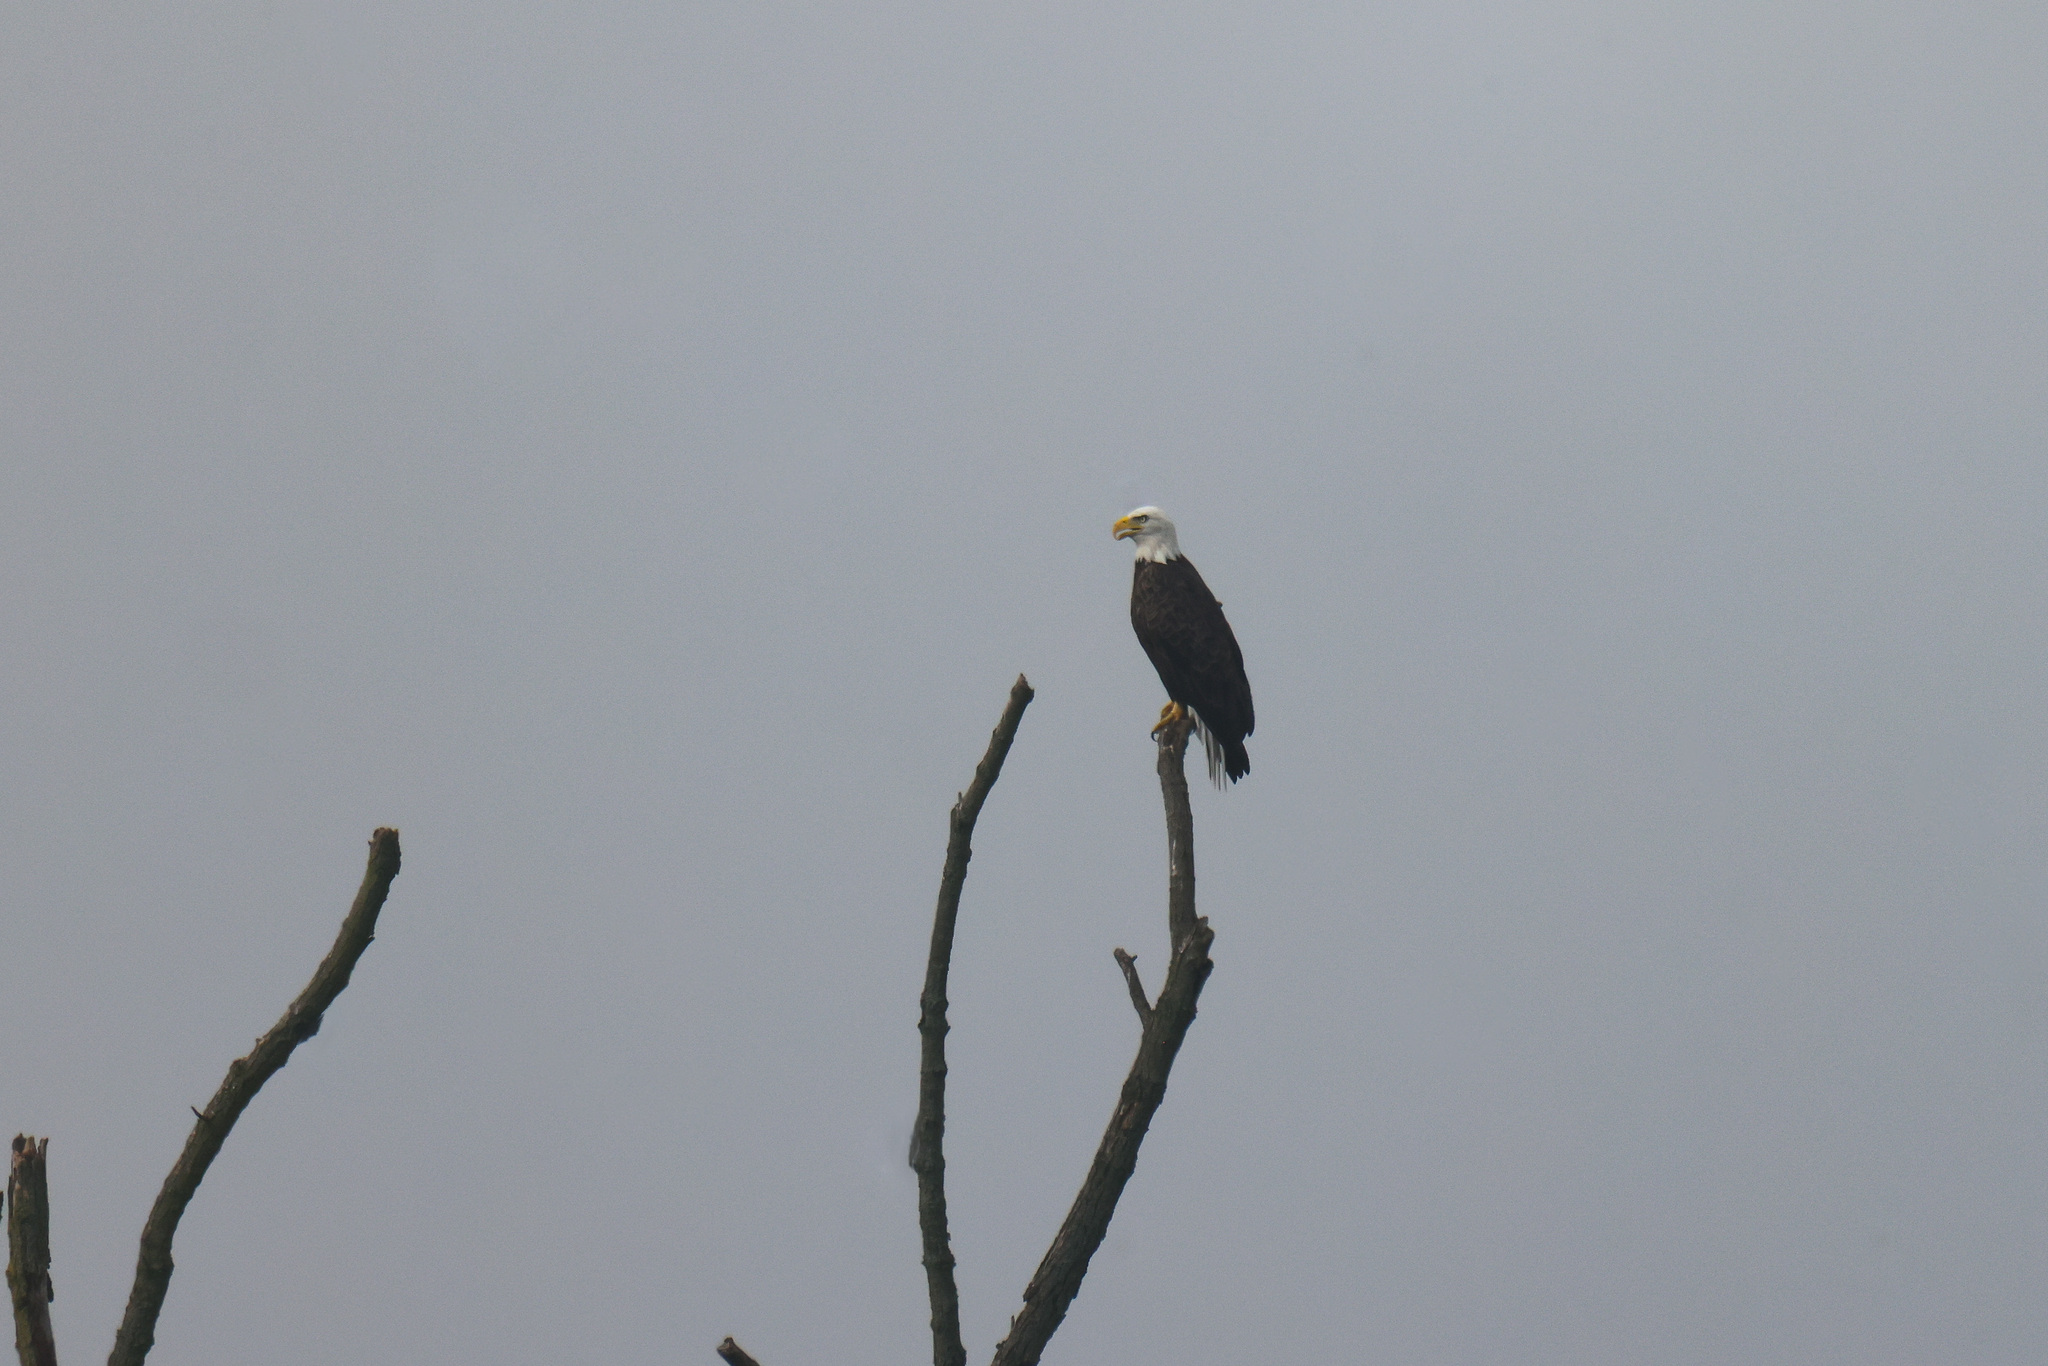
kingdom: Animalia
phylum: Chordata
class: Aves
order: Accipitriformes
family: Accipitridae
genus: Haliaeetus
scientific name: Haliaeetus leucocephalus
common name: Bald eagle
